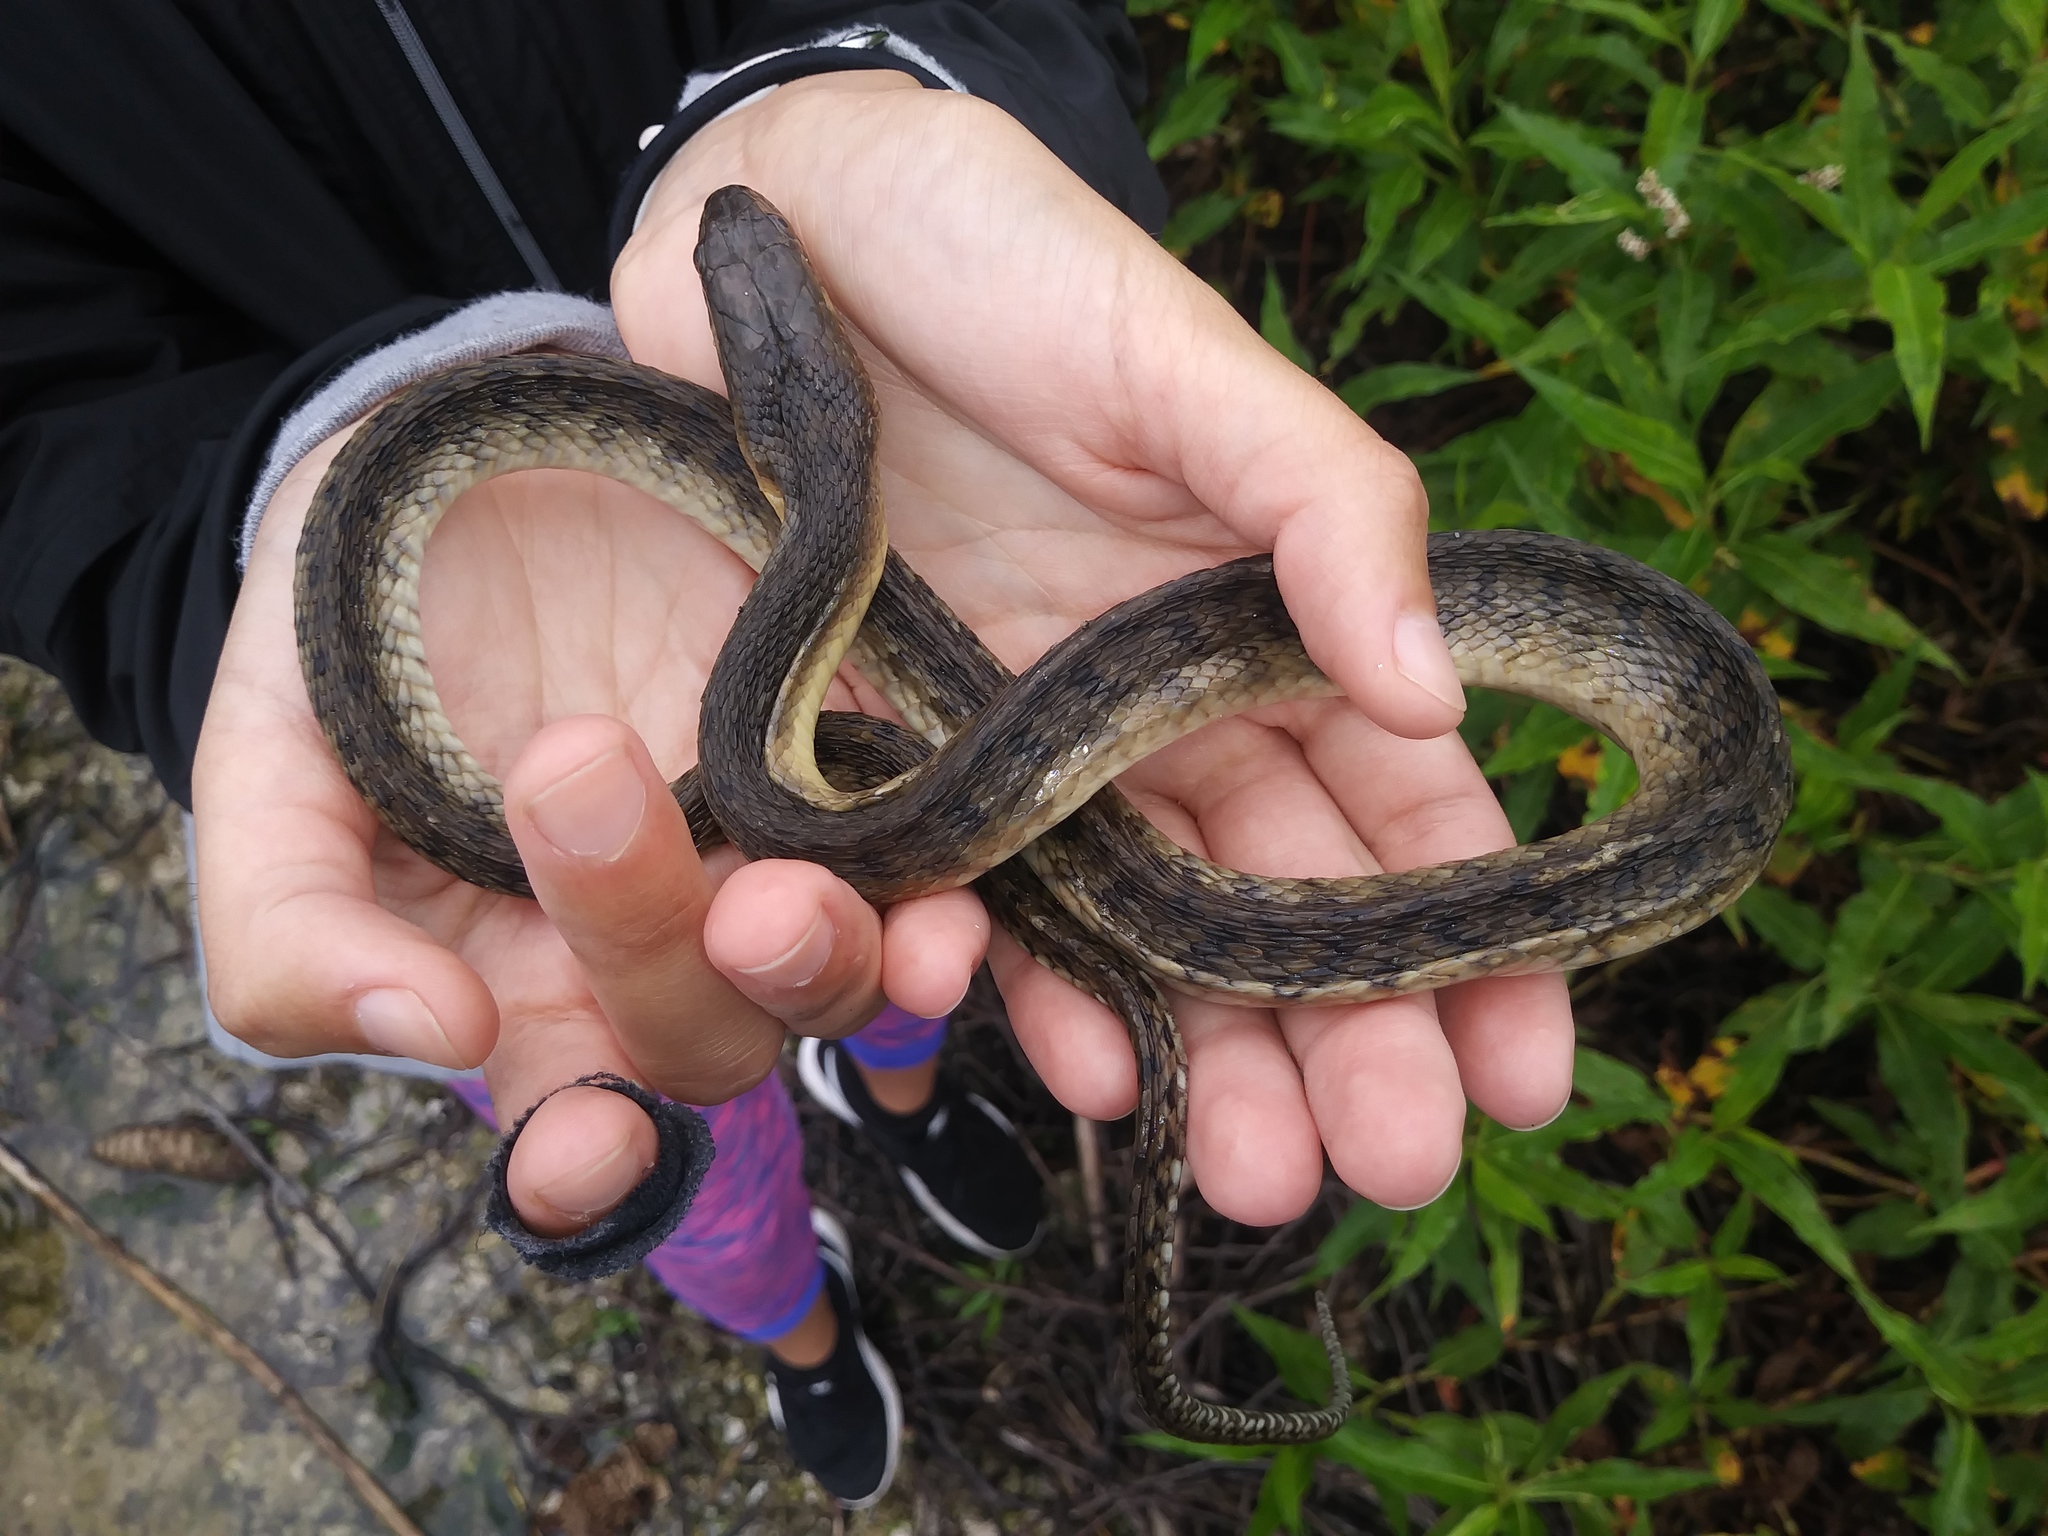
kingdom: Animalia
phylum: Chordata
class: Squamata
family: Colubridae
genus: Nerodia
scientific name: Nerodia floridana
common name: Florida green watersnake
